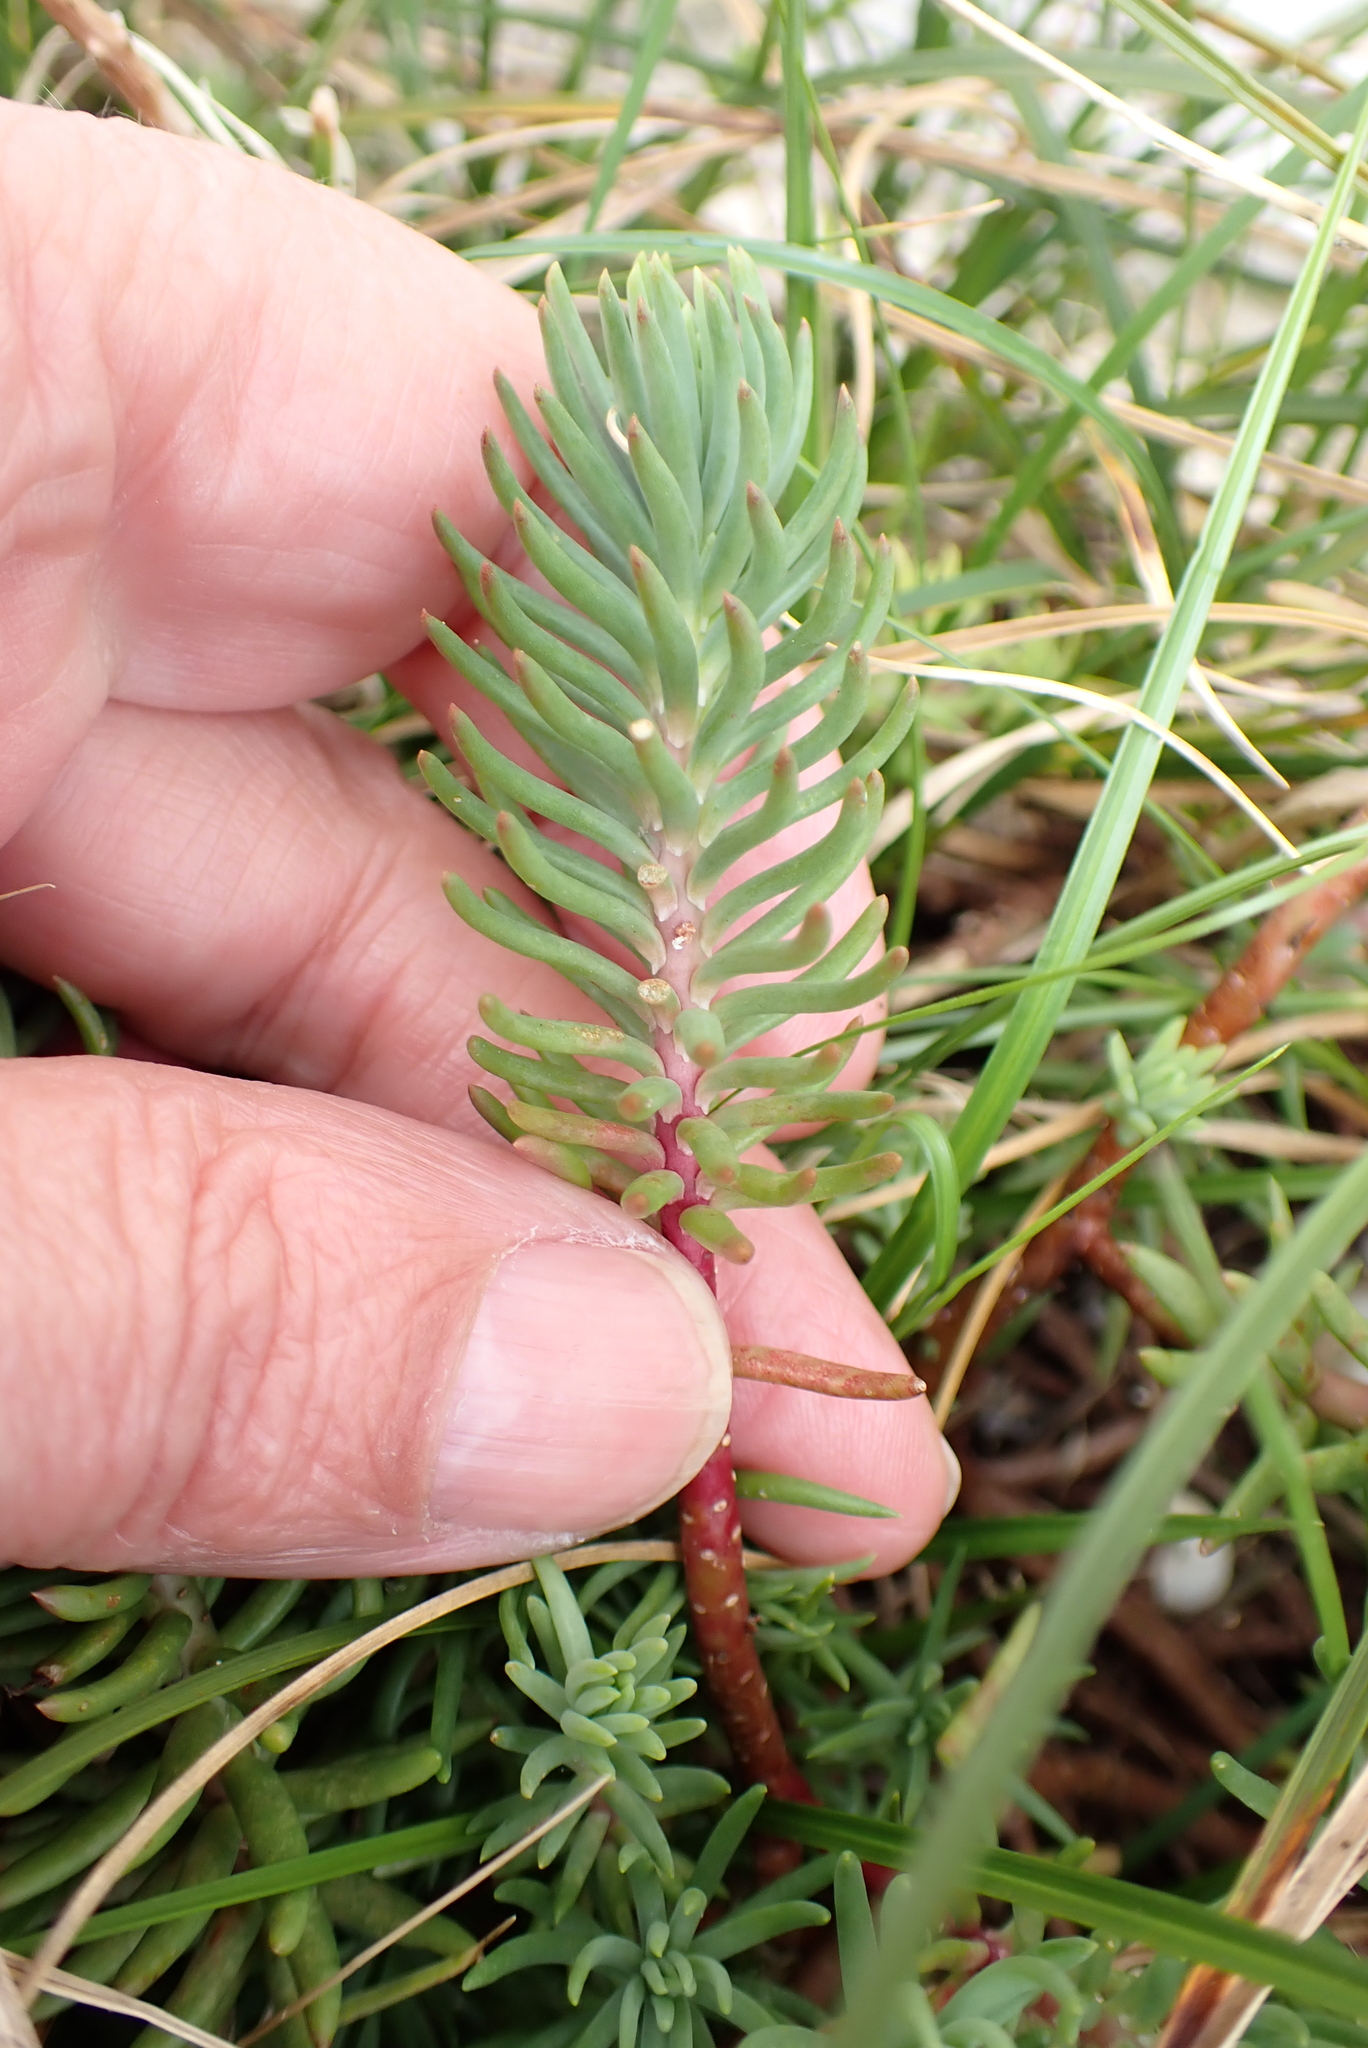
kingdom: Plantae
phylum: Tracheophyta
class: Magnoliopsida
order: Saxifragales
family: Crassulaceae
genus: Petrosedum
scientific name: Petrosedum rupestre
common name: Jenny's stonecrop
